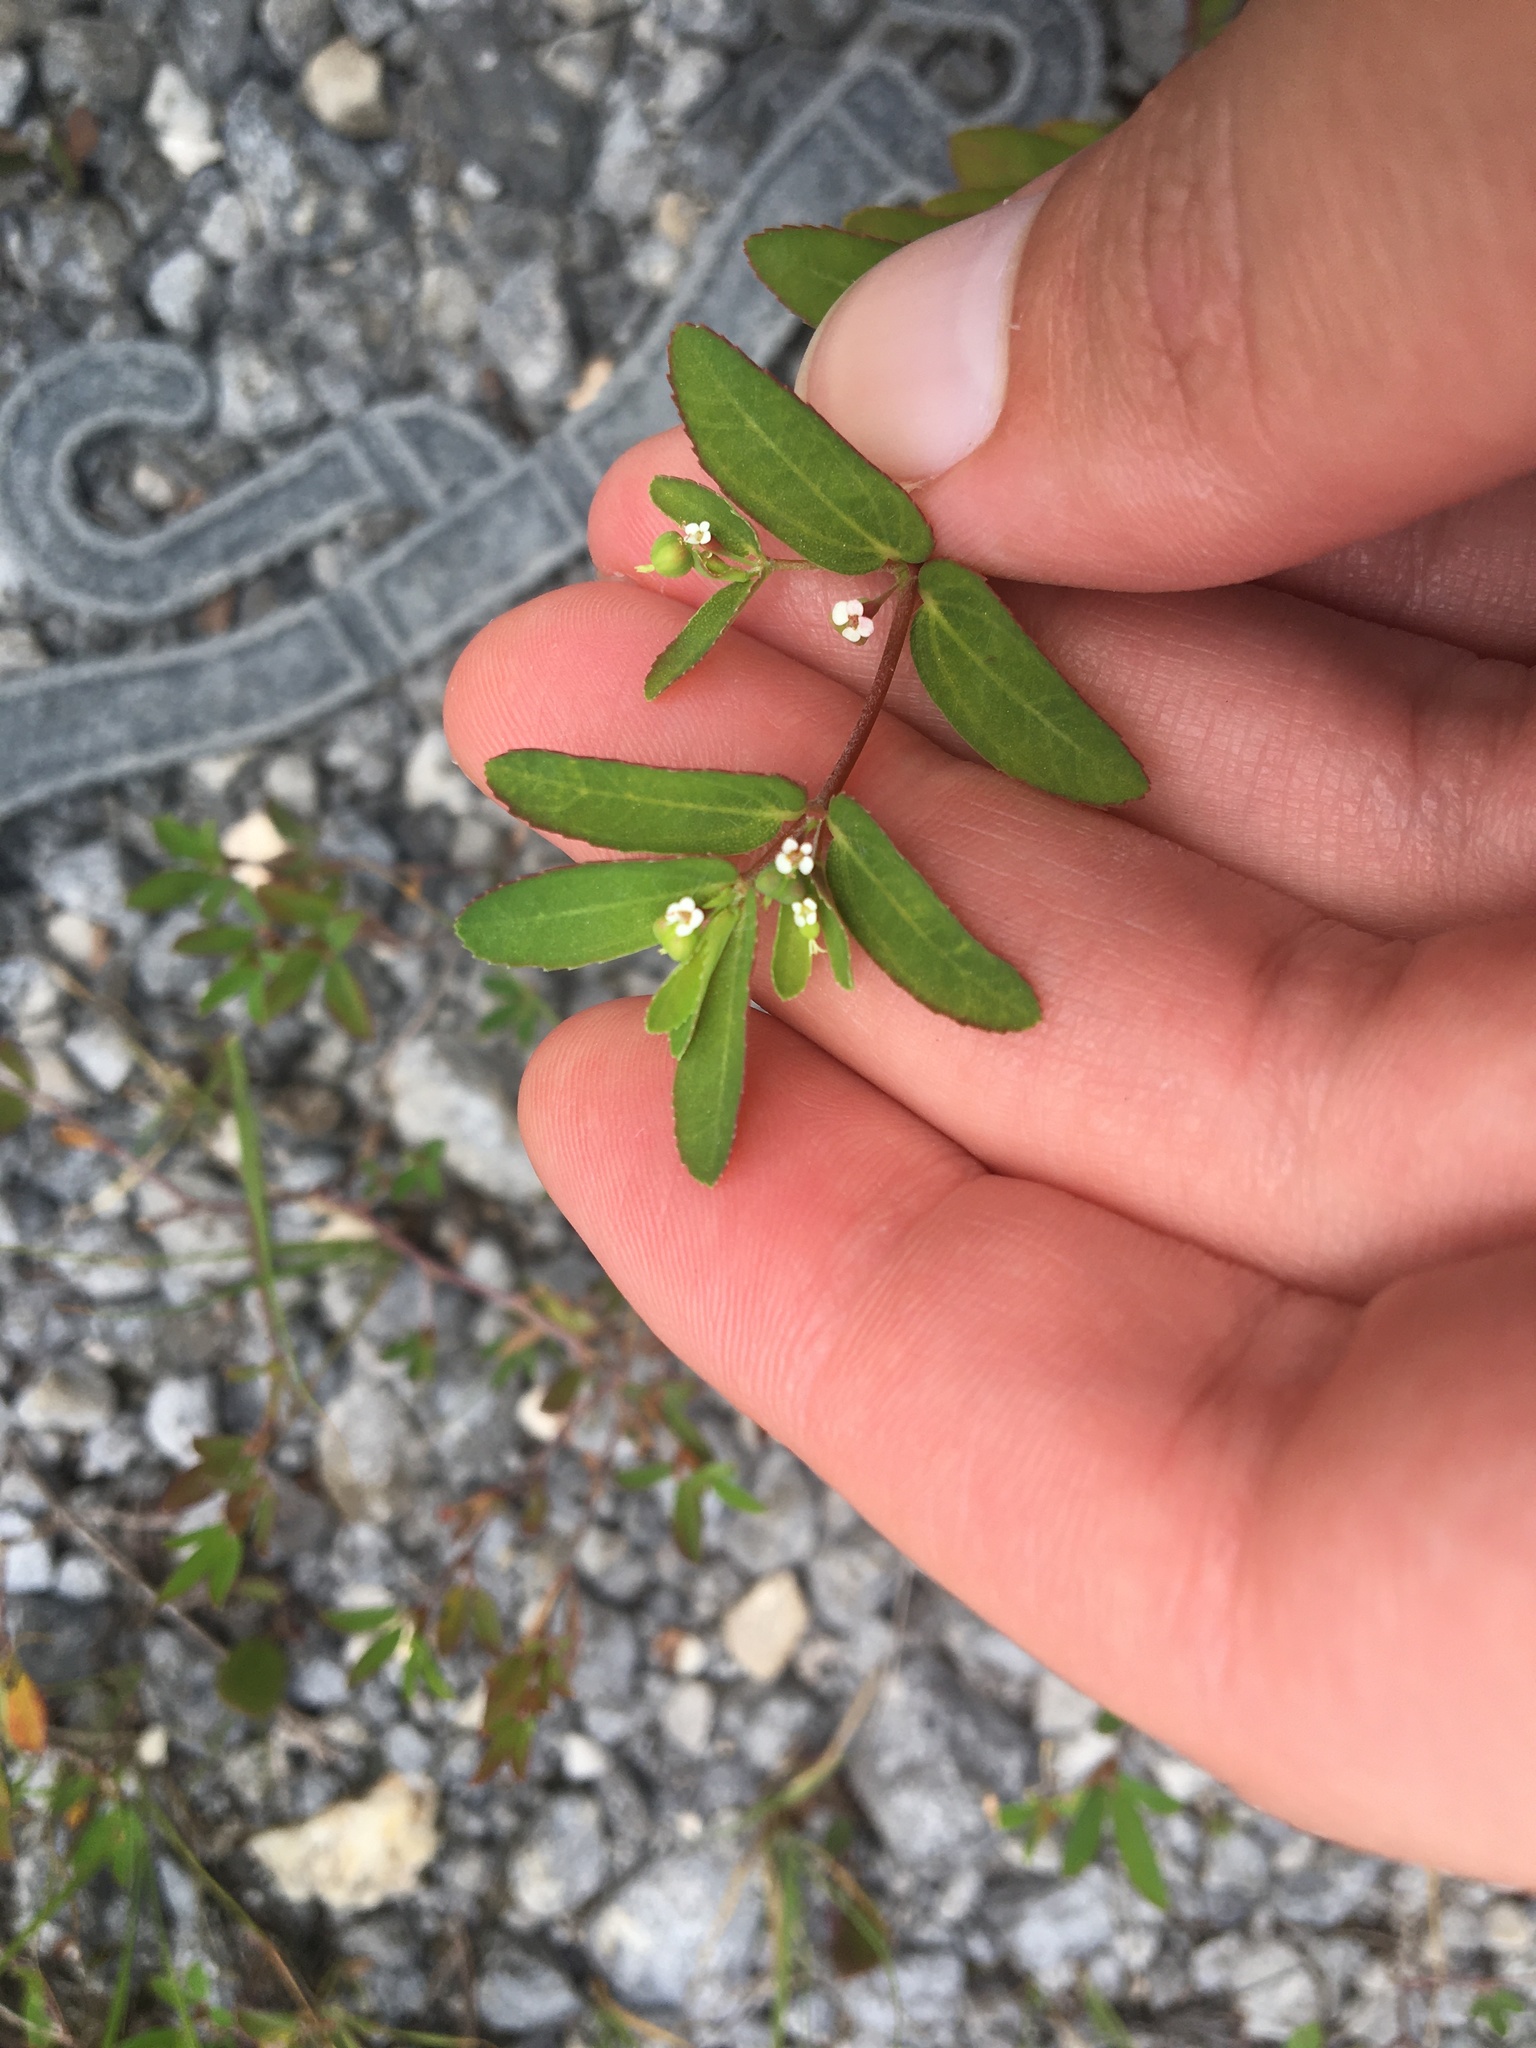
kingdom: Plantae
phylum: Tracheophyta
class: Magnoliopsida
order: Malpighiales
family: Euphorbiaceae
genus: Euphorbia
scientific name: Euphorbia nutans
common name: Eyebane
